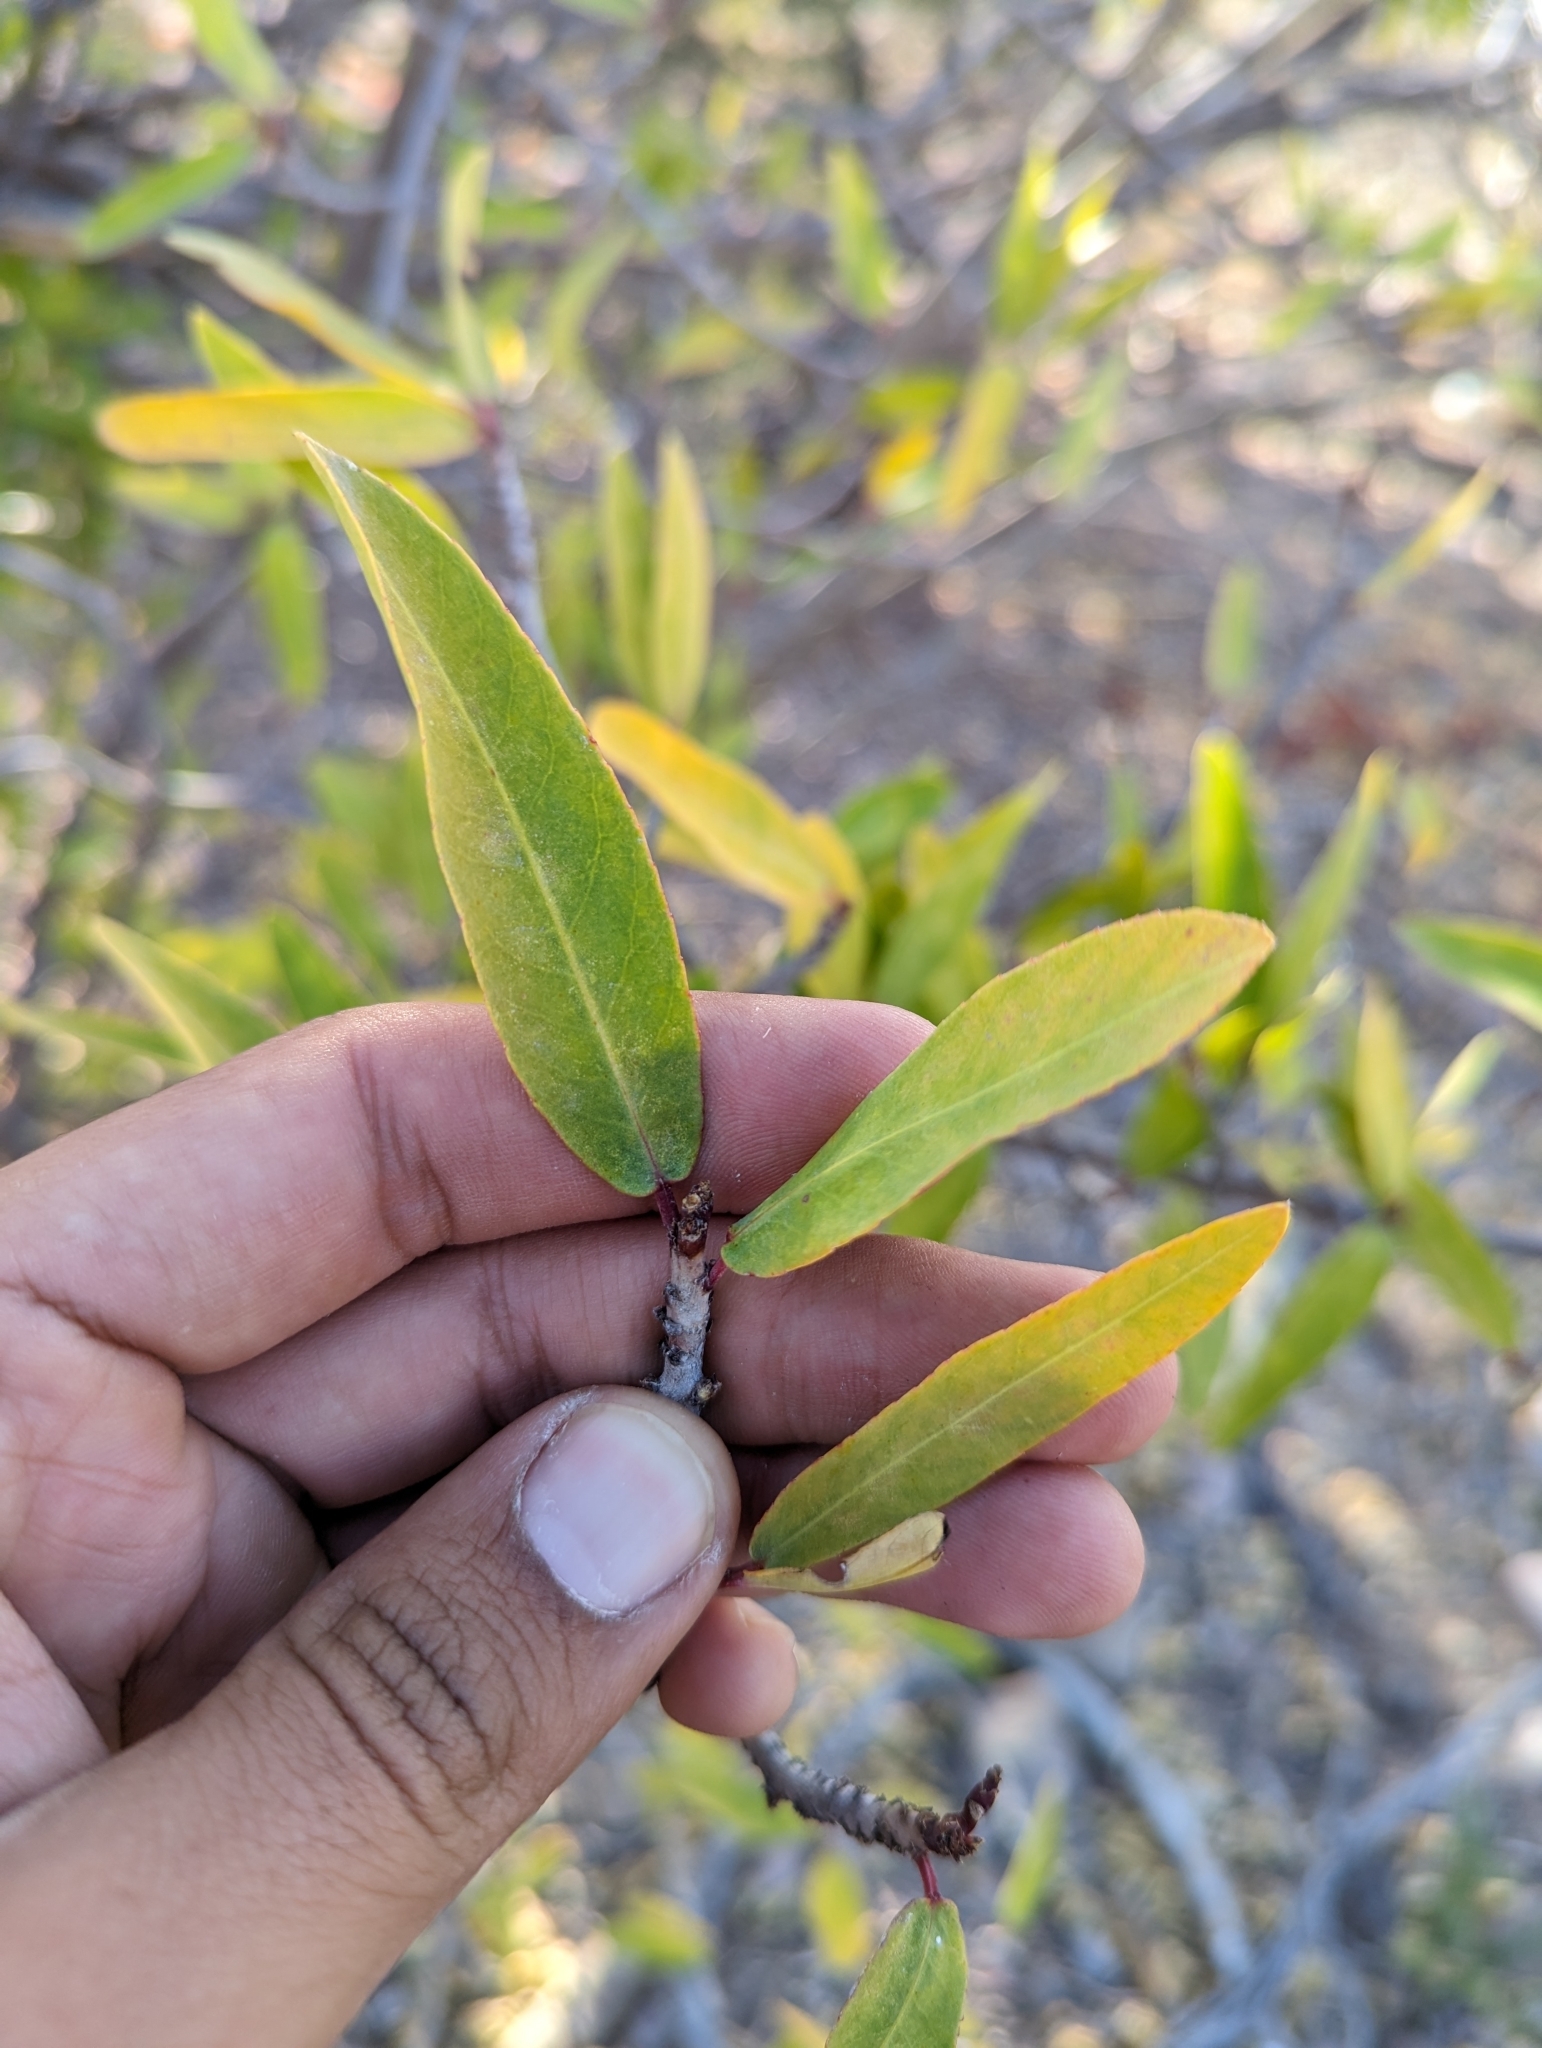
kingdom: Plantae
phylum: Tracheophyta
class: Magnoliopsida
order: Malpighiales
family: Euphorbiaceae
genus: Pleradenophora
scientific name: Pleradenophora bilocularis
